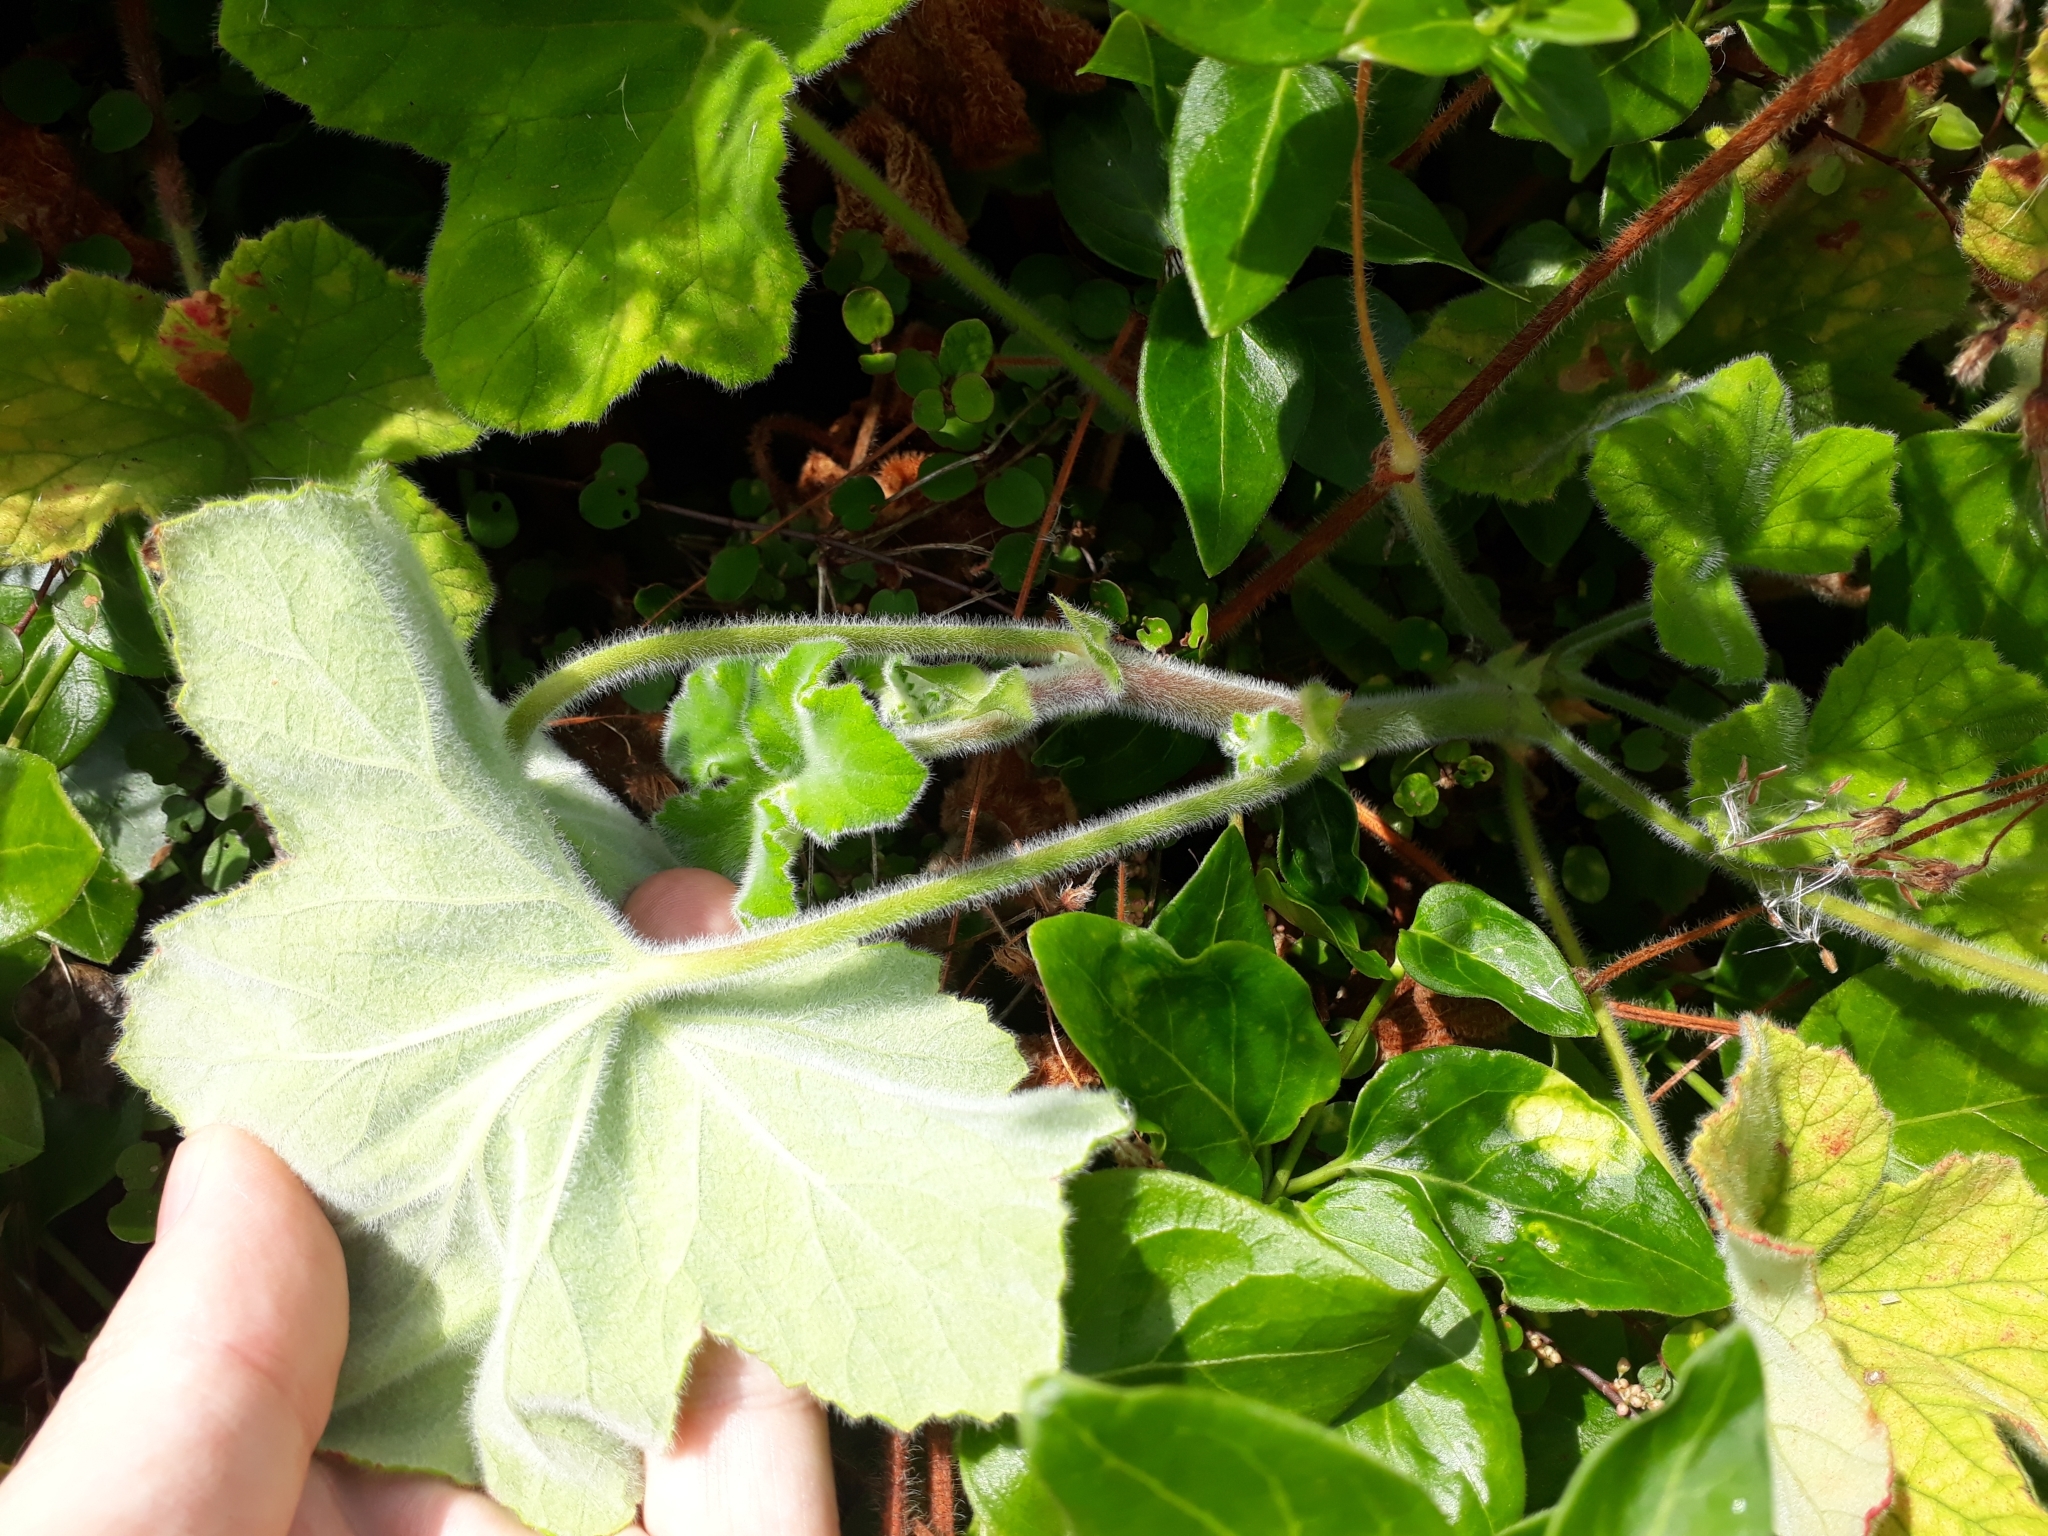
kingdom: Plantae
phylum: Tracheophyta
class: Magnoliopsida
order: Geraniales
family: Geraniaceae
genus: Pelargonium
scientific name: Pelargonium tomentosum
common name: Peppermint-scented geranium
